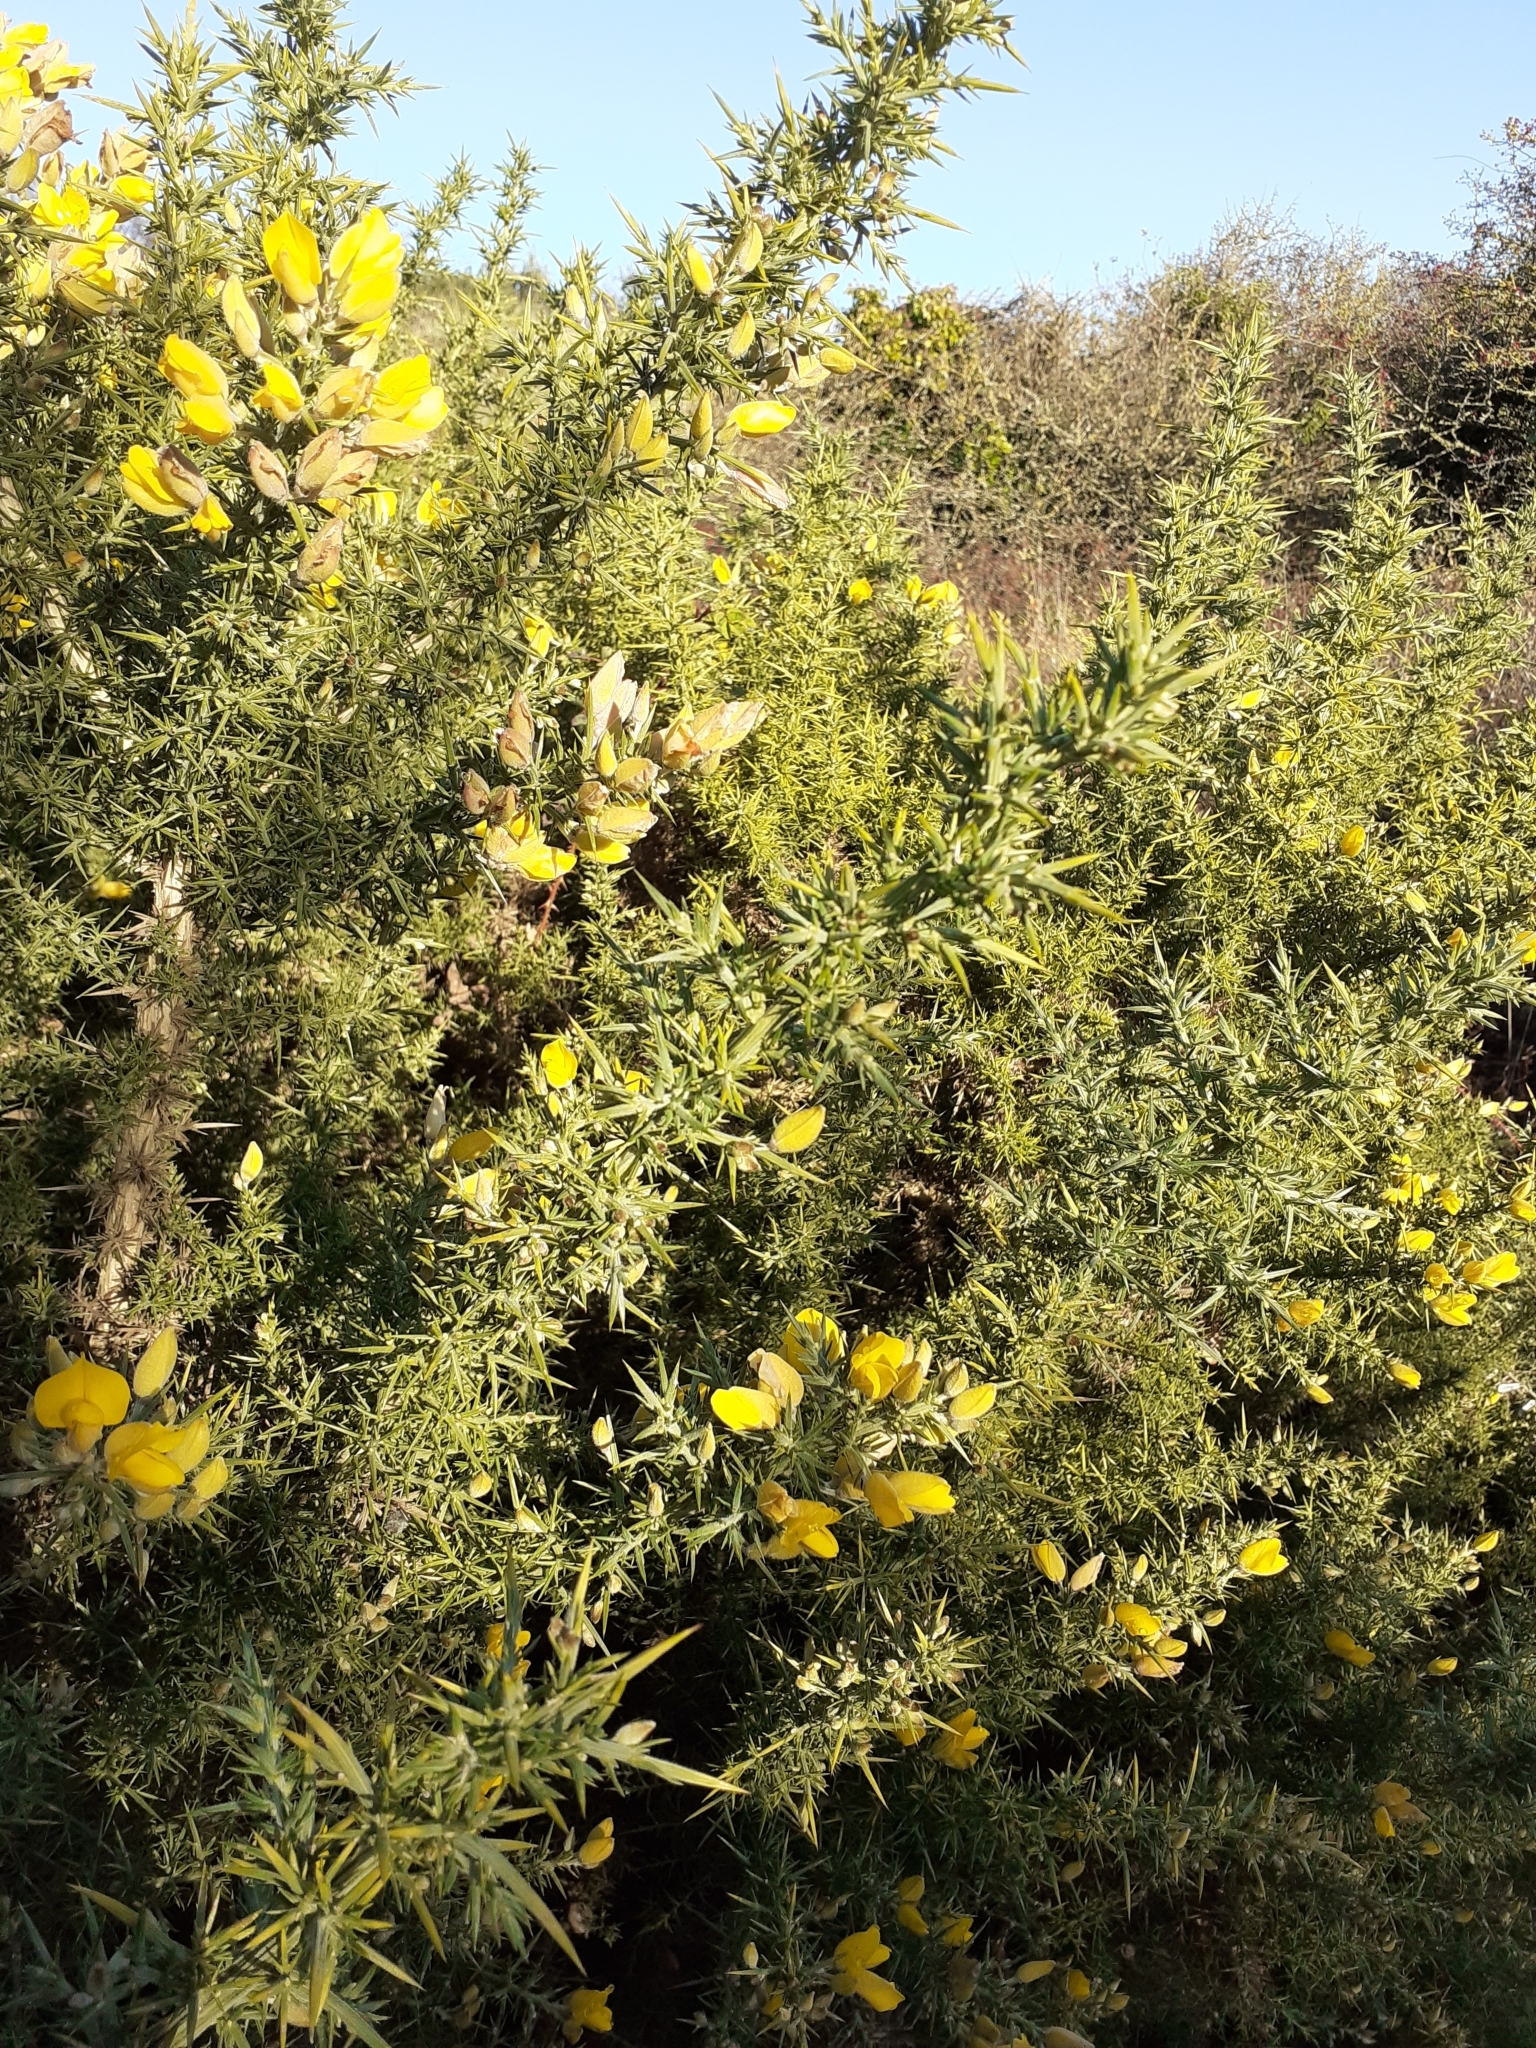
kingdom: Plantae
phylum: Tracheophyta
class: Magnoliopsida
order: Fabales
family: Fabaceae
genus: Ulex
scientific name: Ulex europaeus
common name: Common gorse
